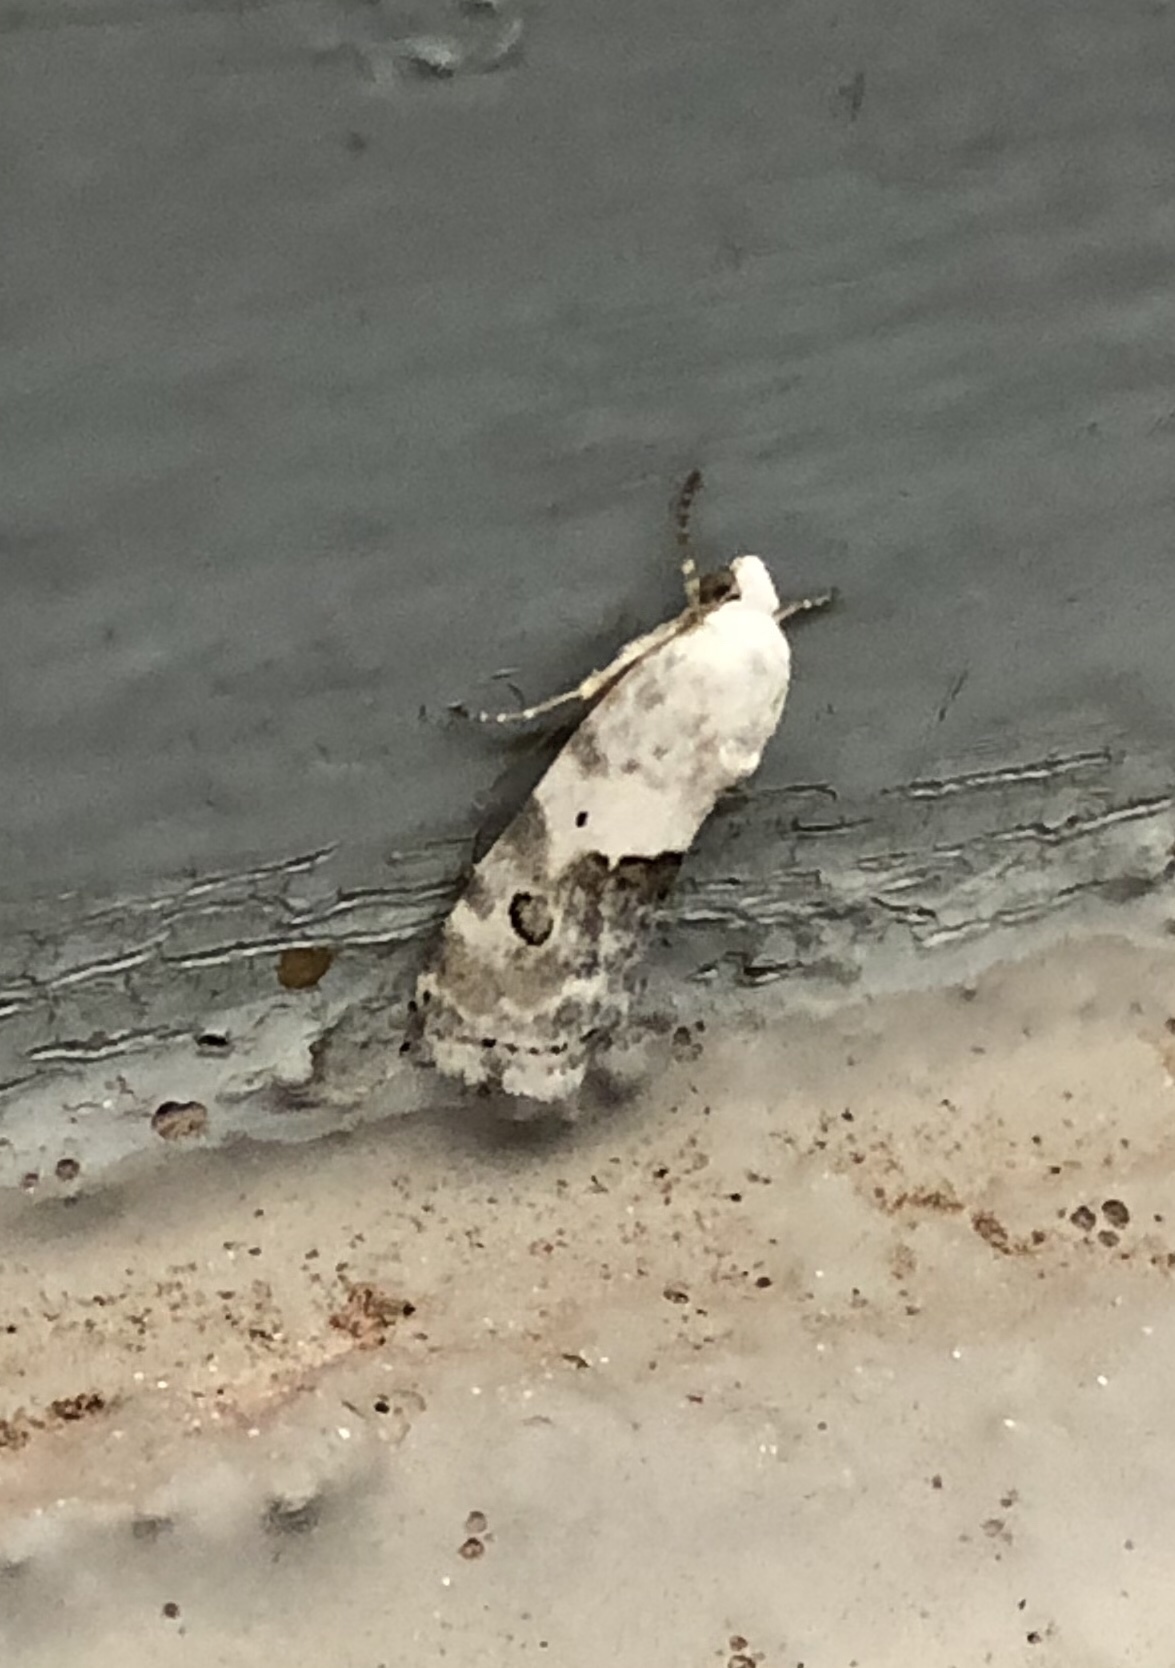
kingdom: Animalia
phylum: Arthropoda
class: Insecta
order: Lepidoptera
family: Noctuidae
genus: Acontia
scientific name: Acontia phecolisca
